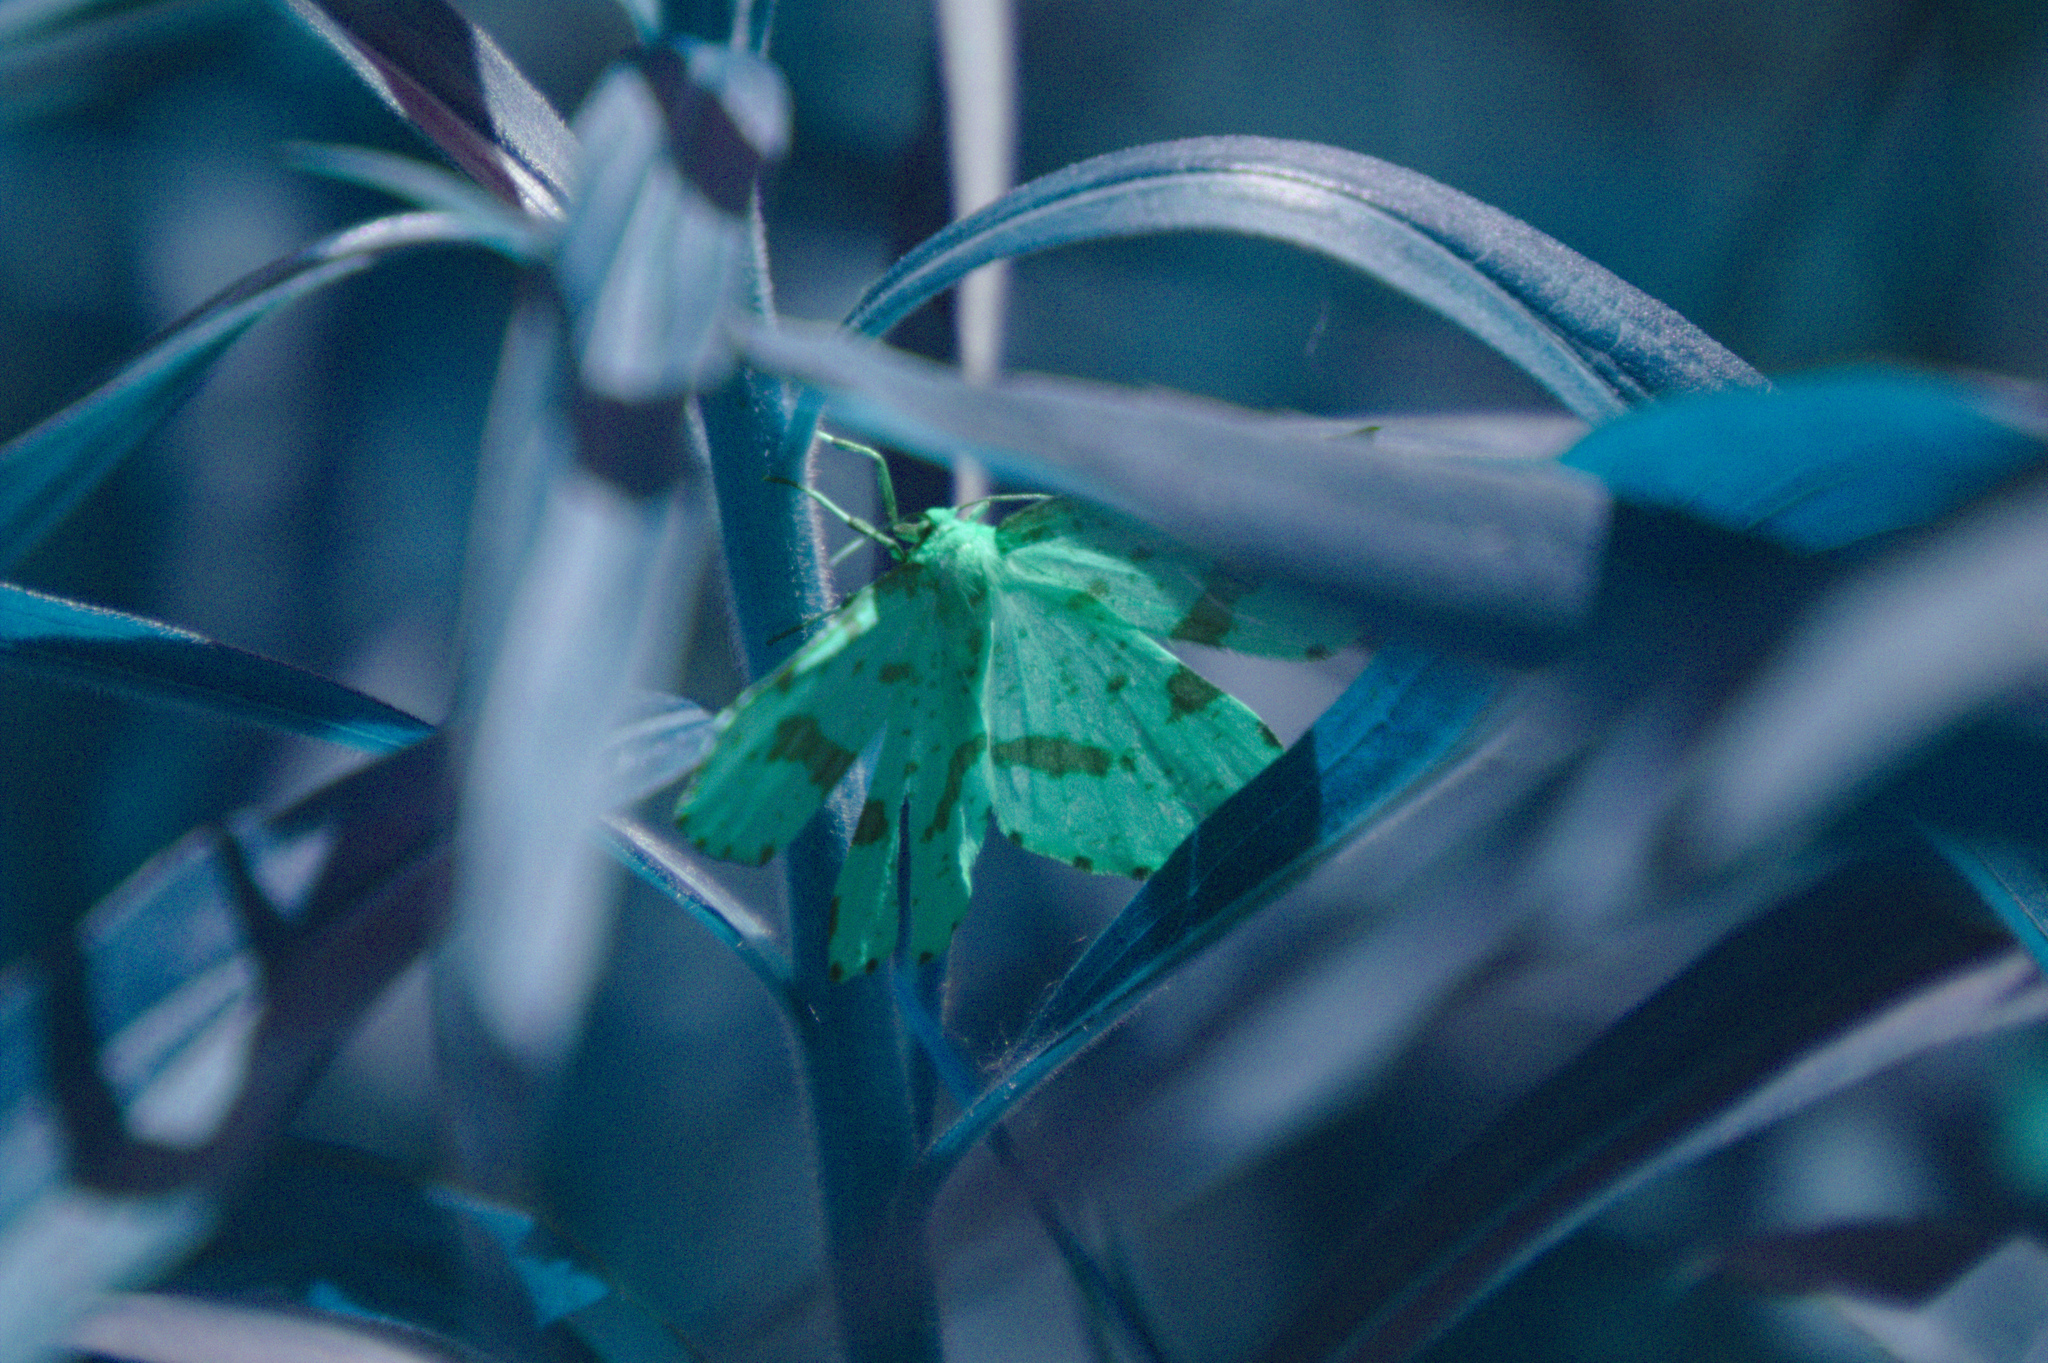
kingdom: Animalia
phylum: Arthropoda
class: Insecta
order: Lepidoptera
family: Geometridae
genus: Xanthotype
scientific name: Xanthotype
